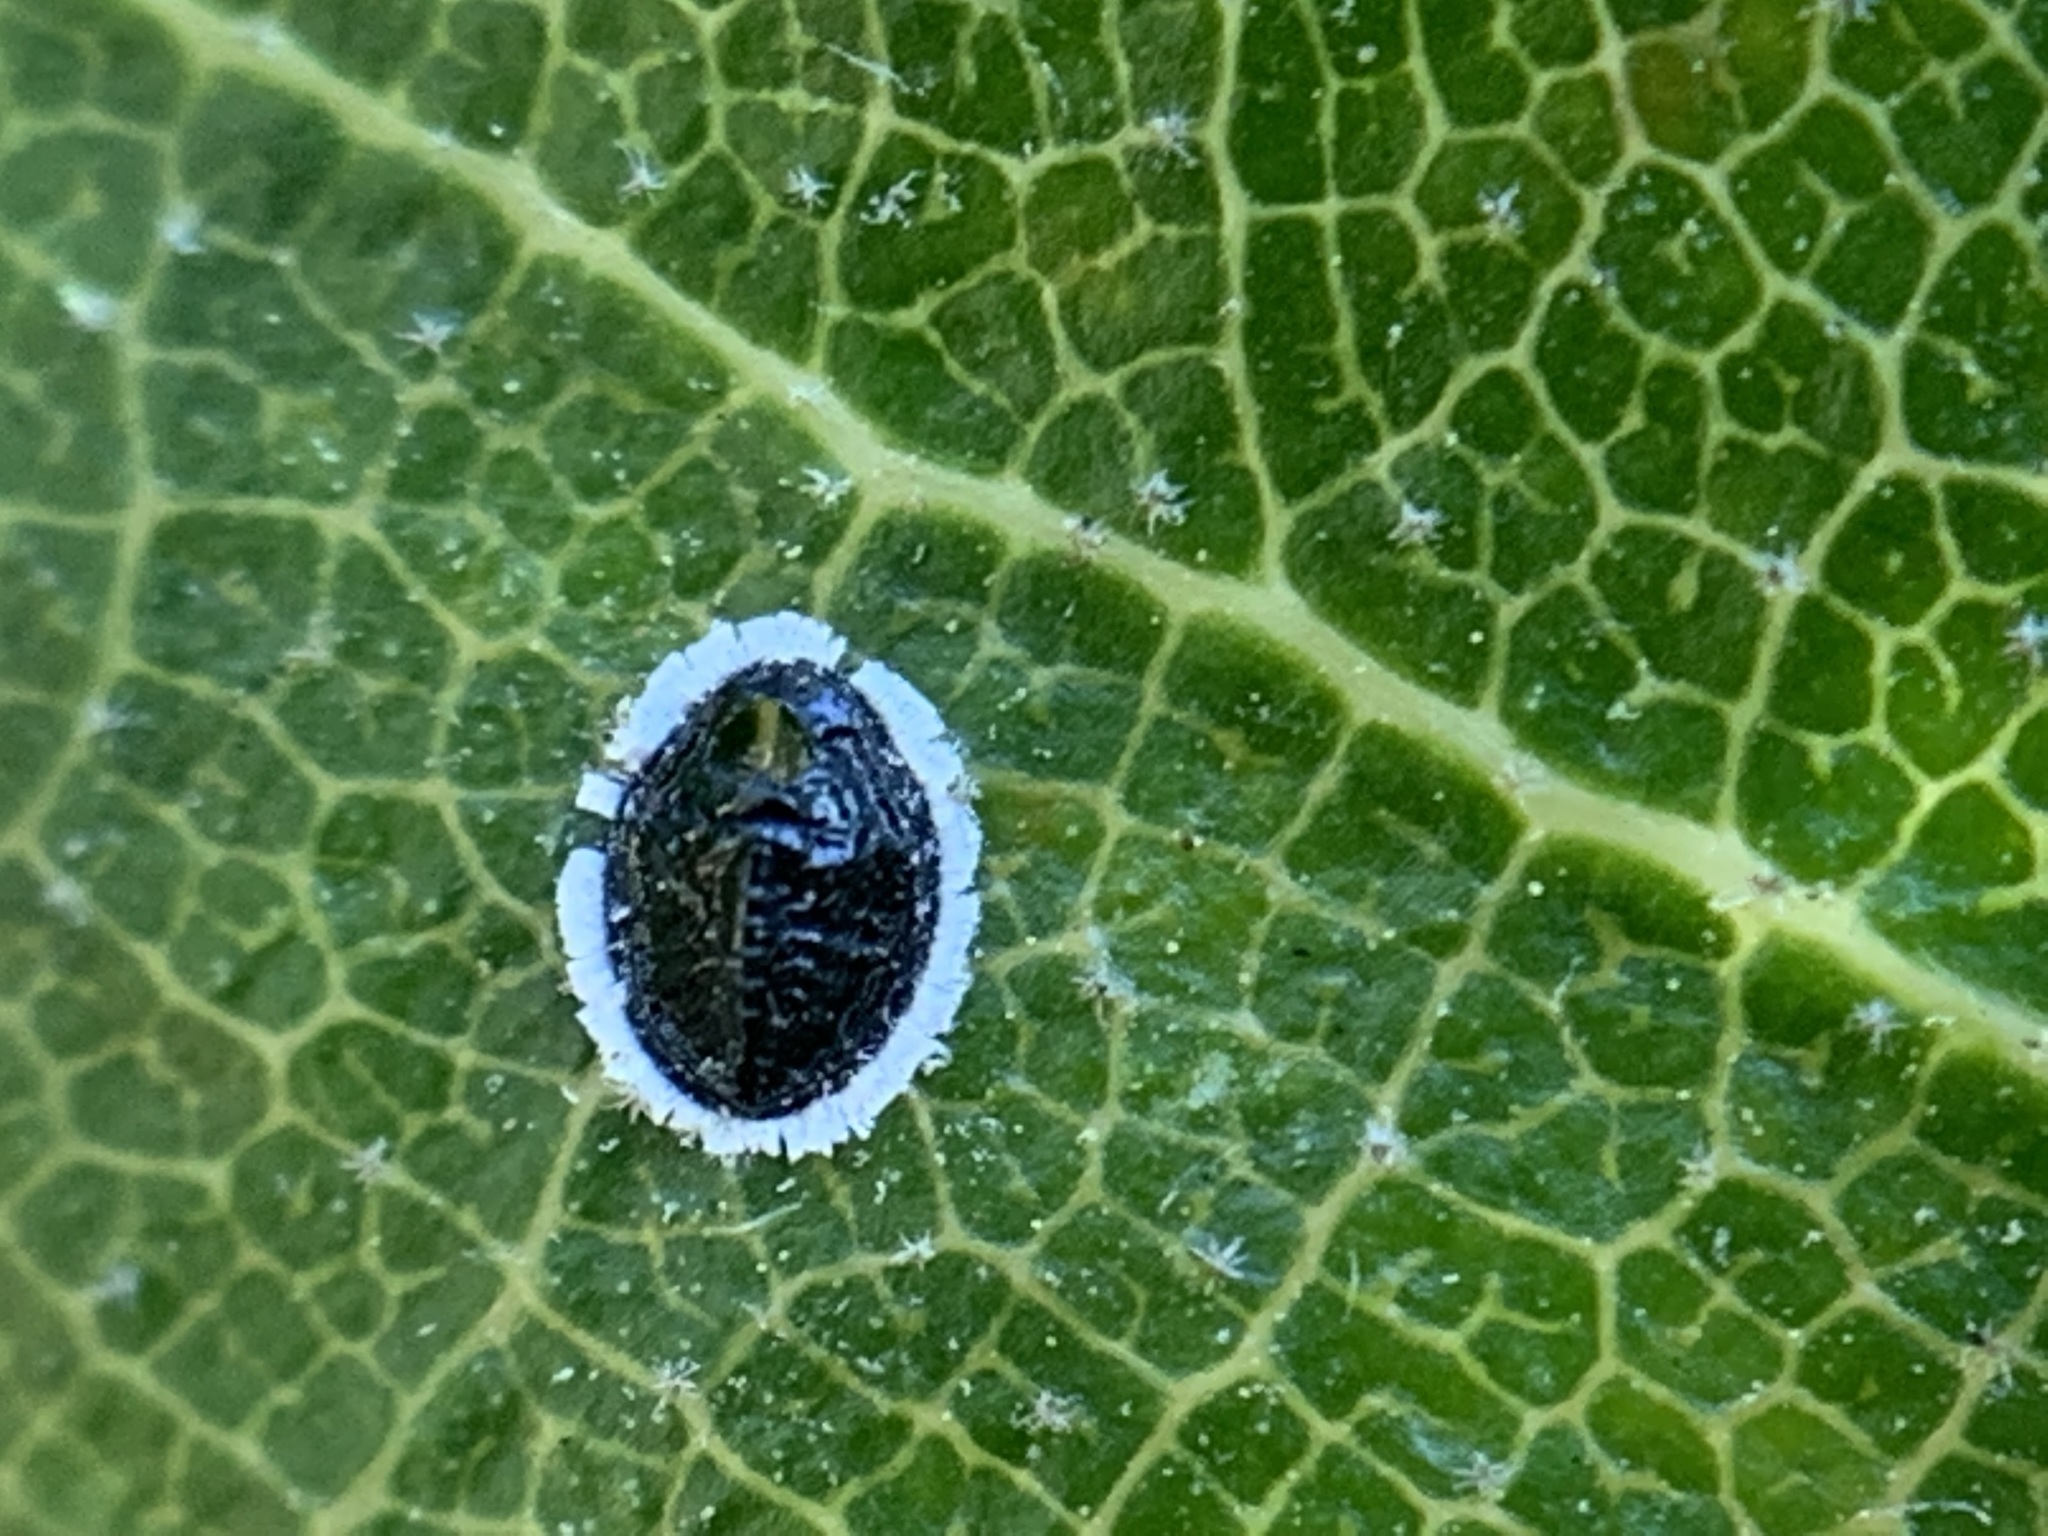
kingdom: Animalia
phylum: Arthropoda
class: Insecta
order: Hemiptera
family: Aleyrodidae
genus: Tetraleurodes
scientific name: Tetraleurodes perileuca
